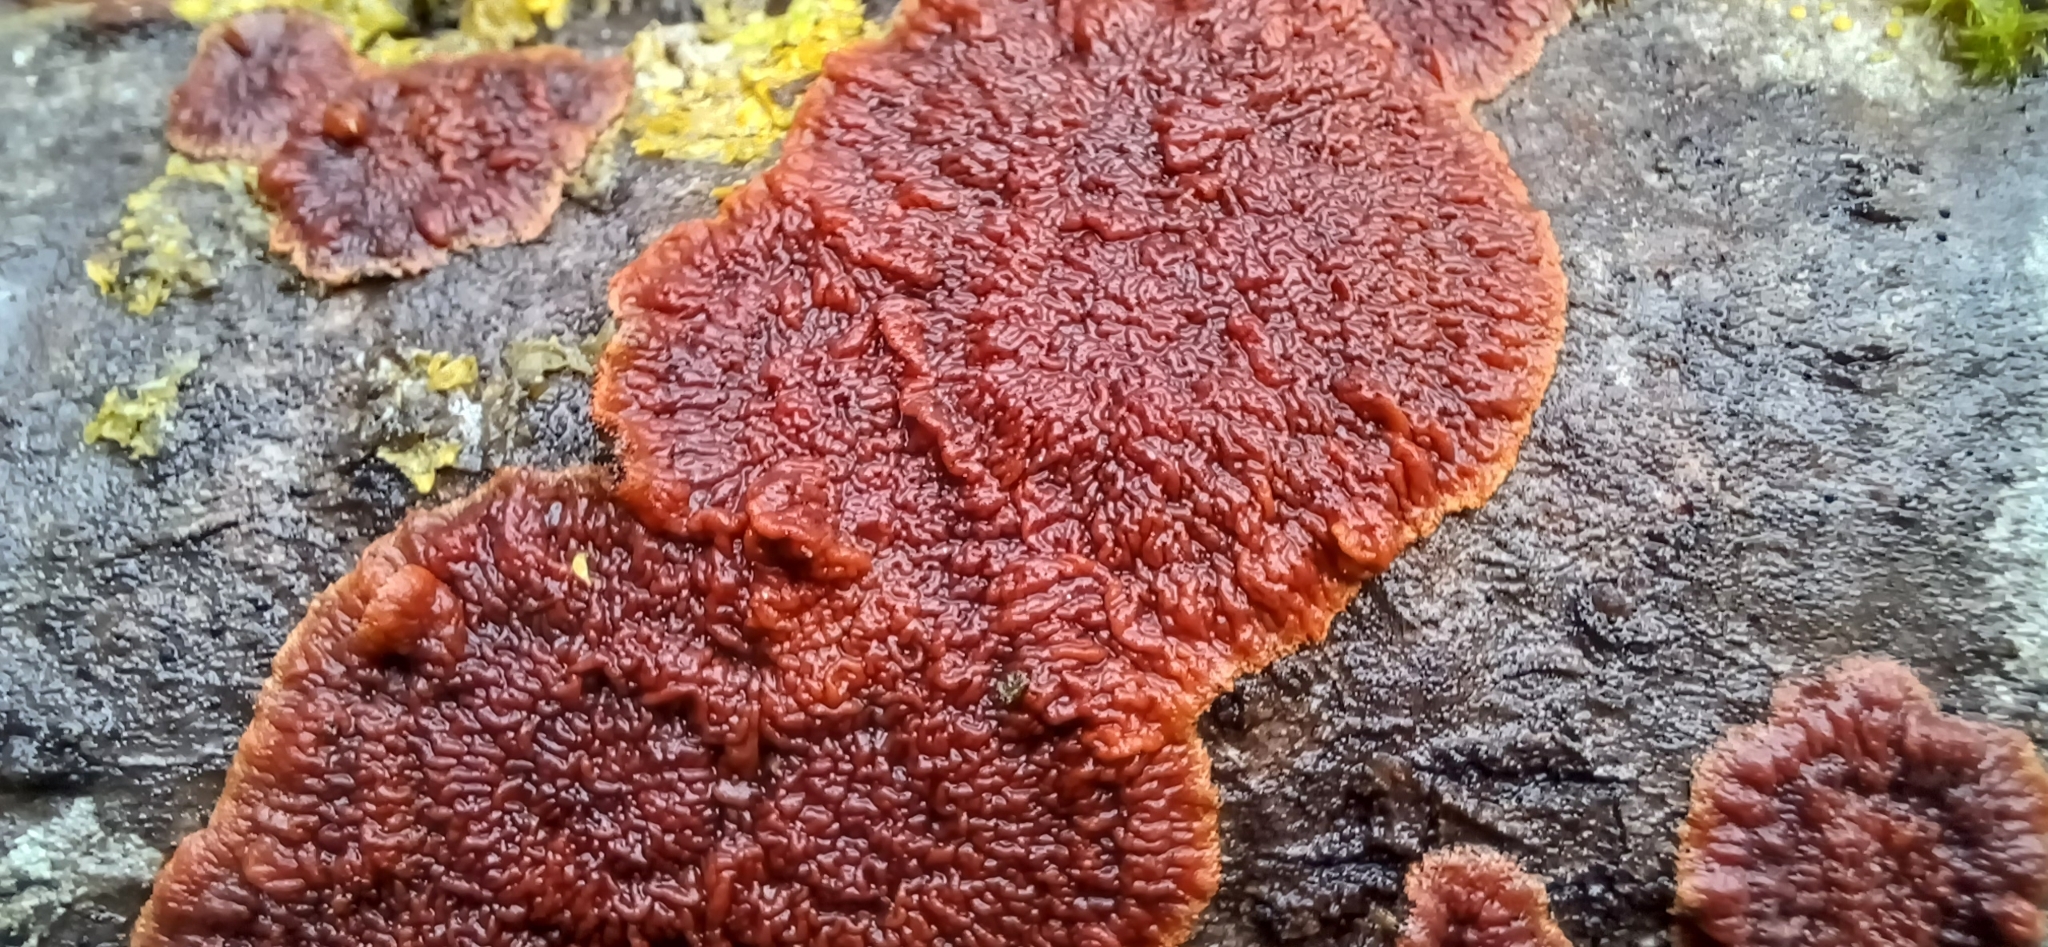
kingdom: Fungi
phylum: Basidiomycota
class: Agaricomycetes
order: Polyporales
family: Meruliaceae
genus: Phlebia
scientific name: Phlebia radiata
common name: Wrinkled crust
